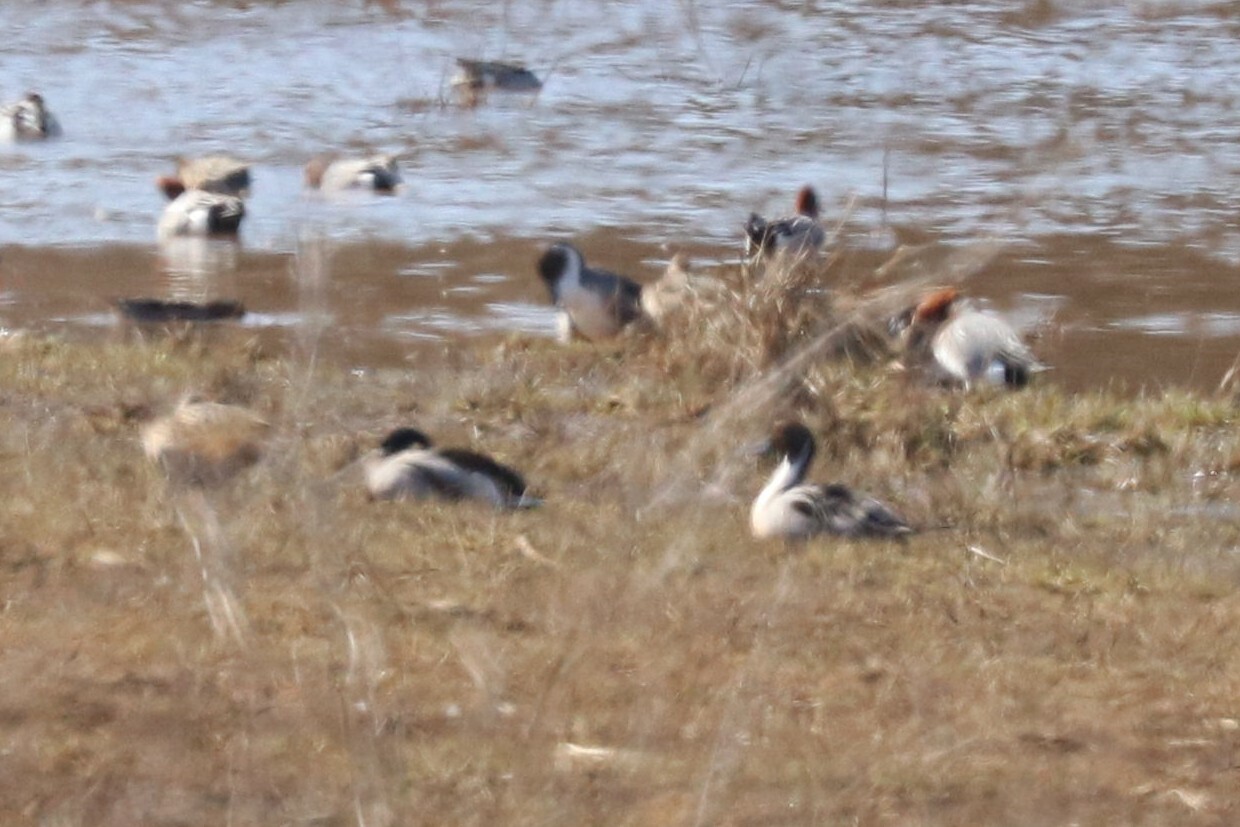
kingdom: Animalia
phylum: Chordata
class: Aves
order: Anseriformes
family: Anatidae
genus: Anas
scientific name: Anas acuta
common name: Northern pintail
